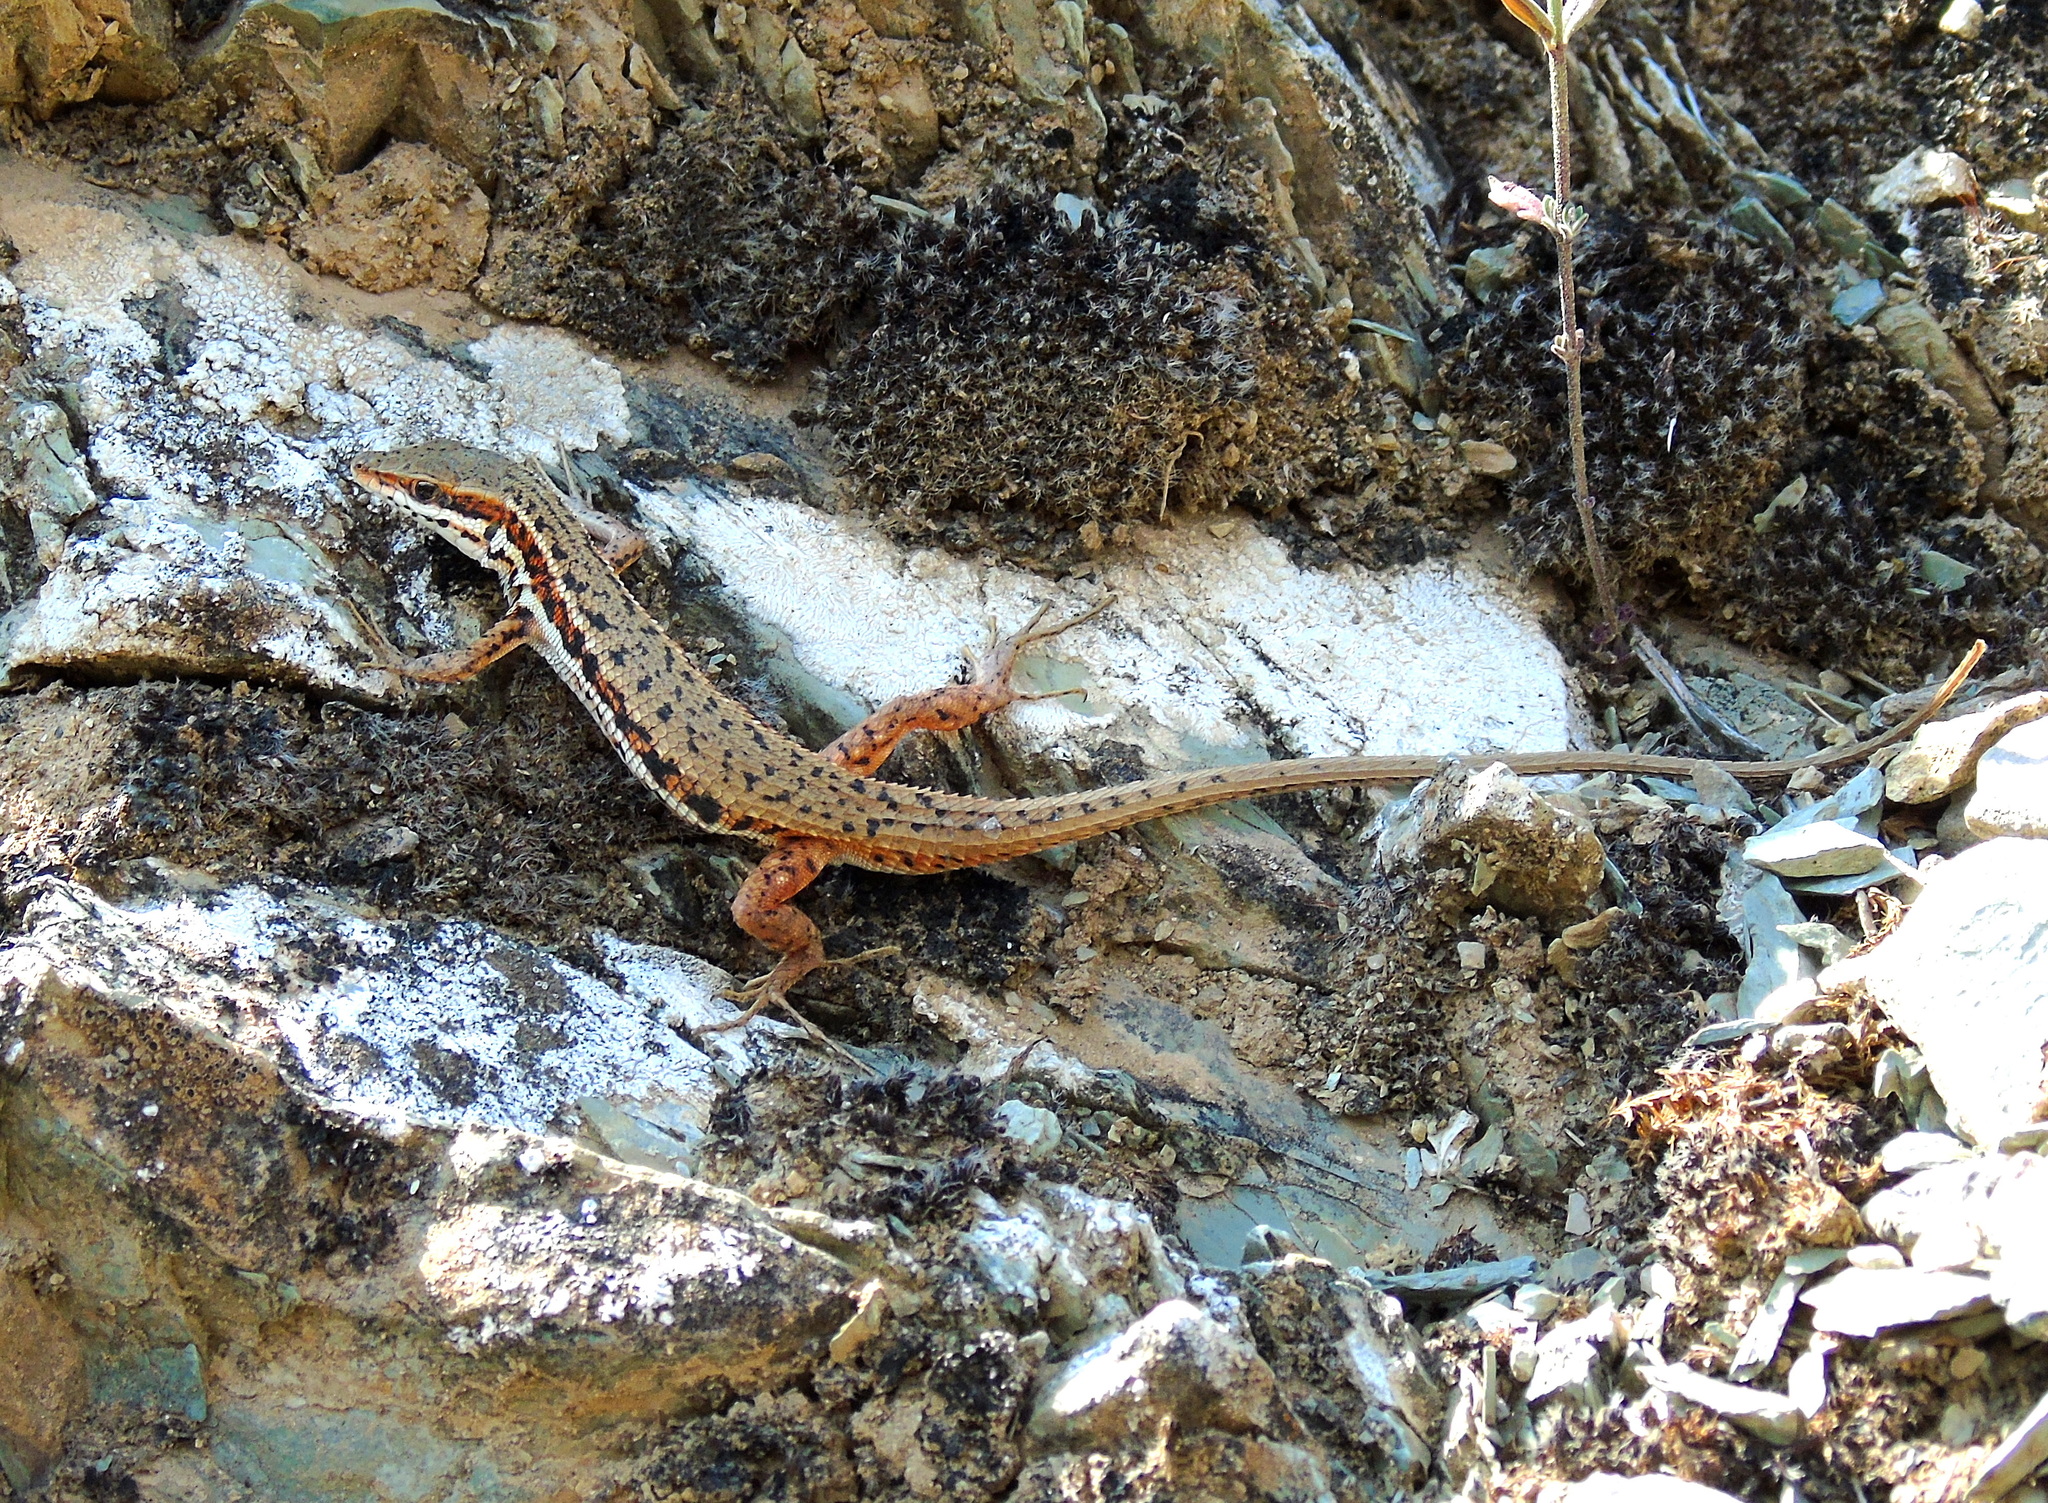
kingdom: Animalia
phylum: Chordata
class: Squamata
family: Lacertidae
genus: Ophisops
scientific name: Ophisops elegans
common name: Snake-eyed lizard
